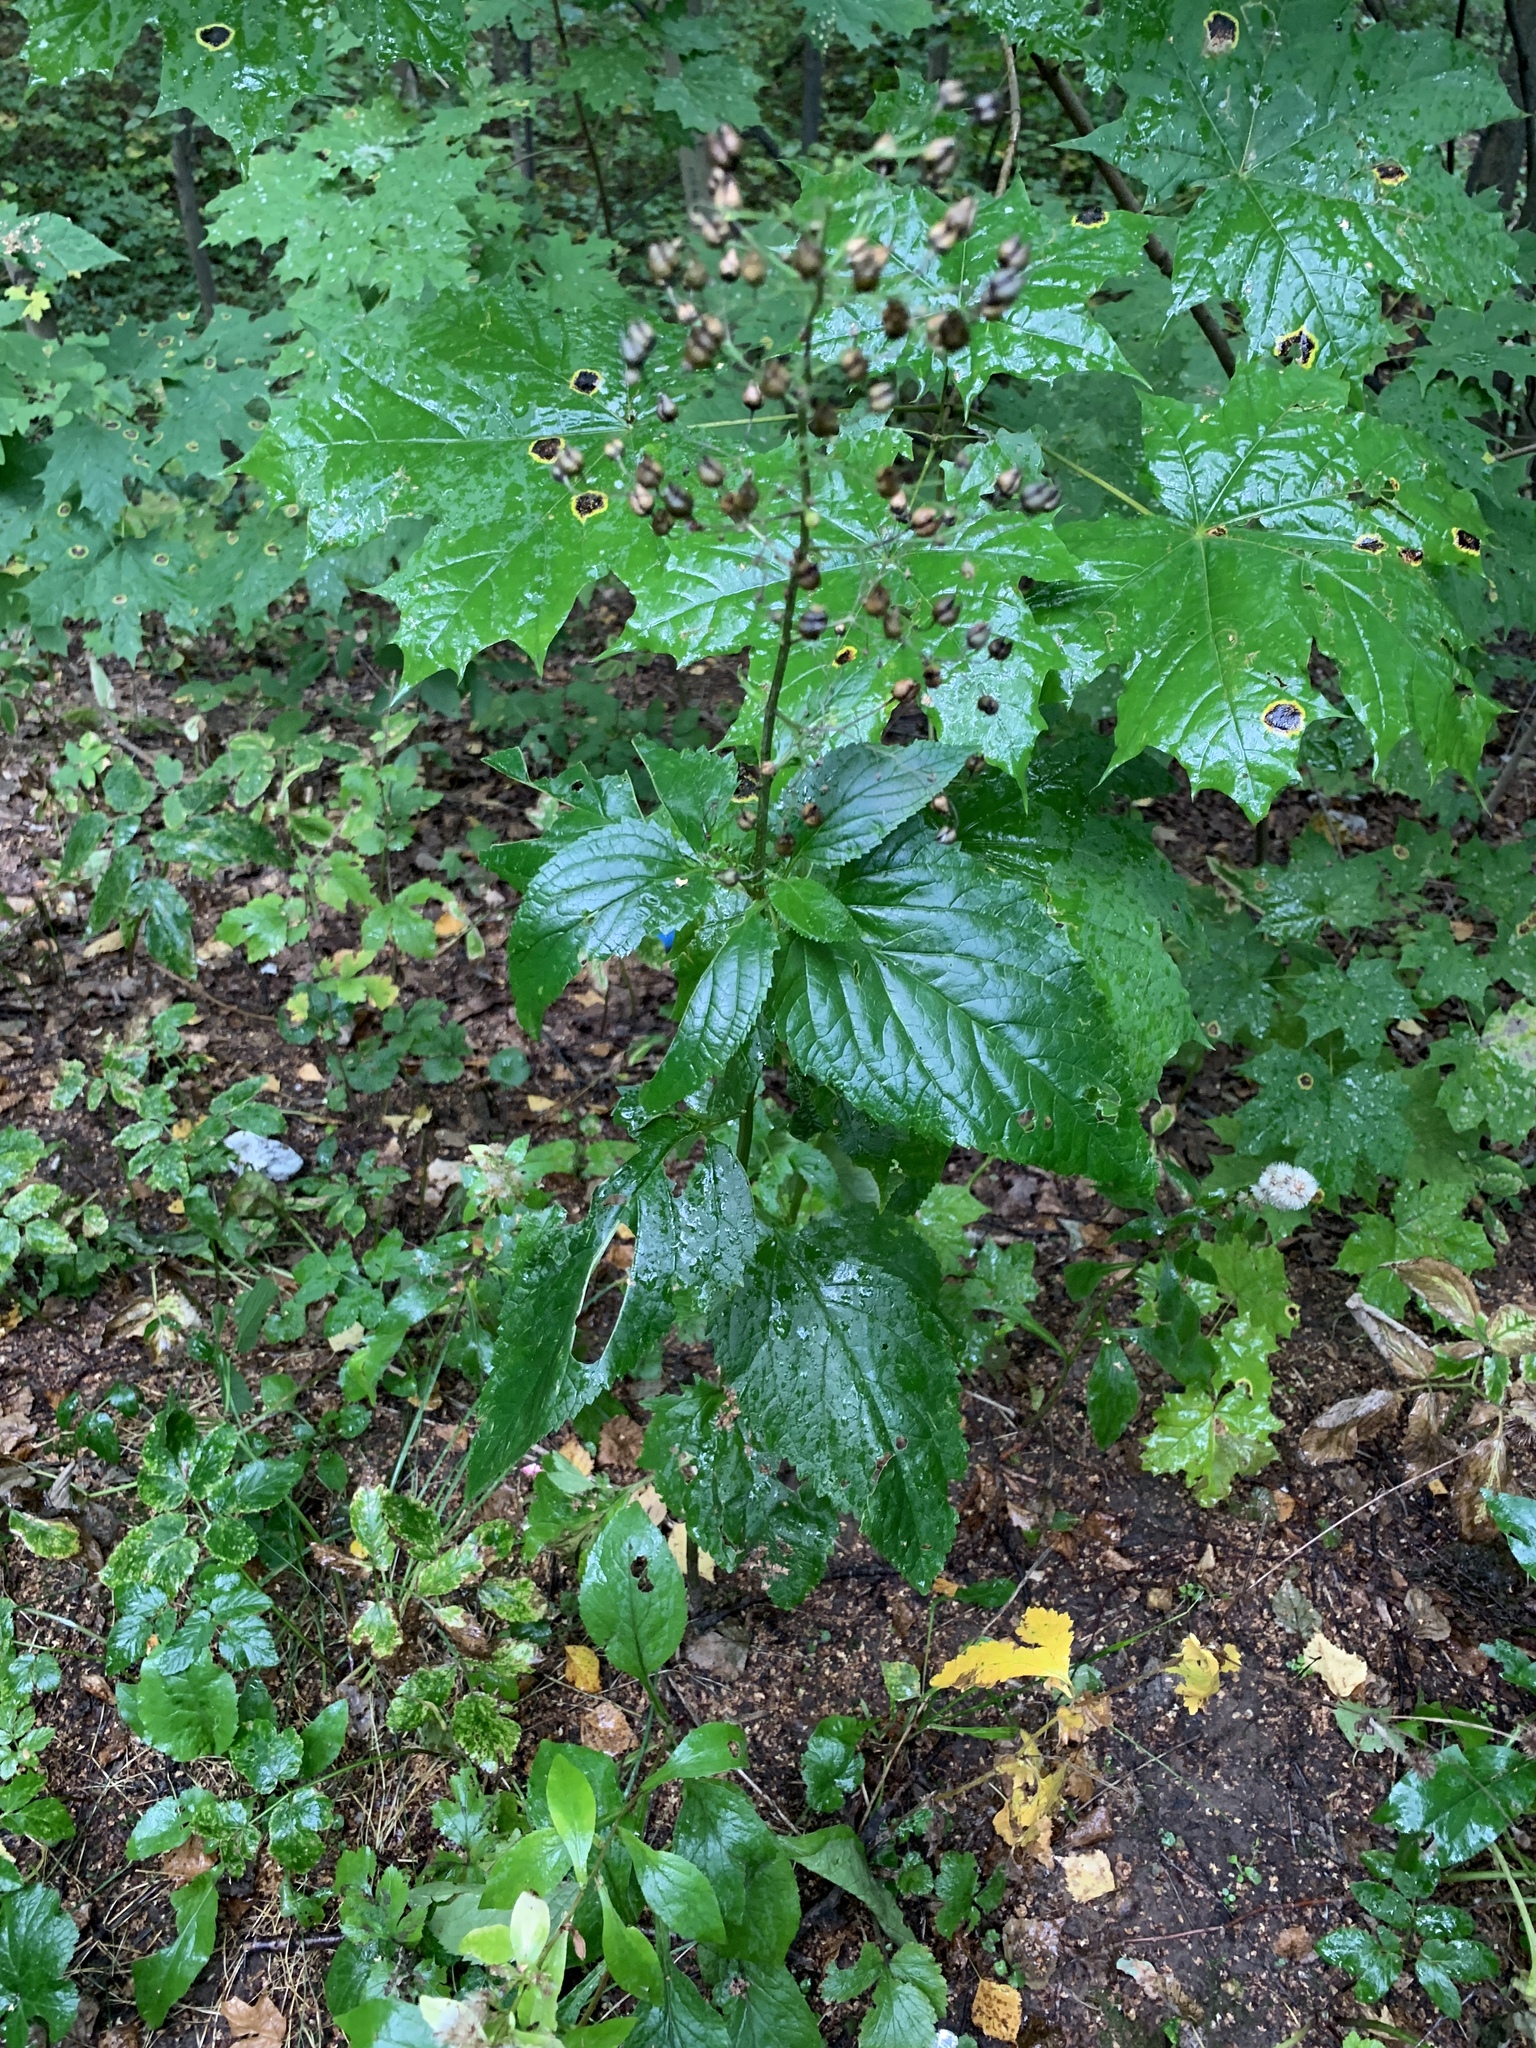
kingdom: Plantae
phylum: Tracheophyta
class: Magnoliopsida
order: Lamiales
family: Scrophulariaceae
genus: Scrophularia
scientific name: Scrophularia nodosa
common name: Common figwort
